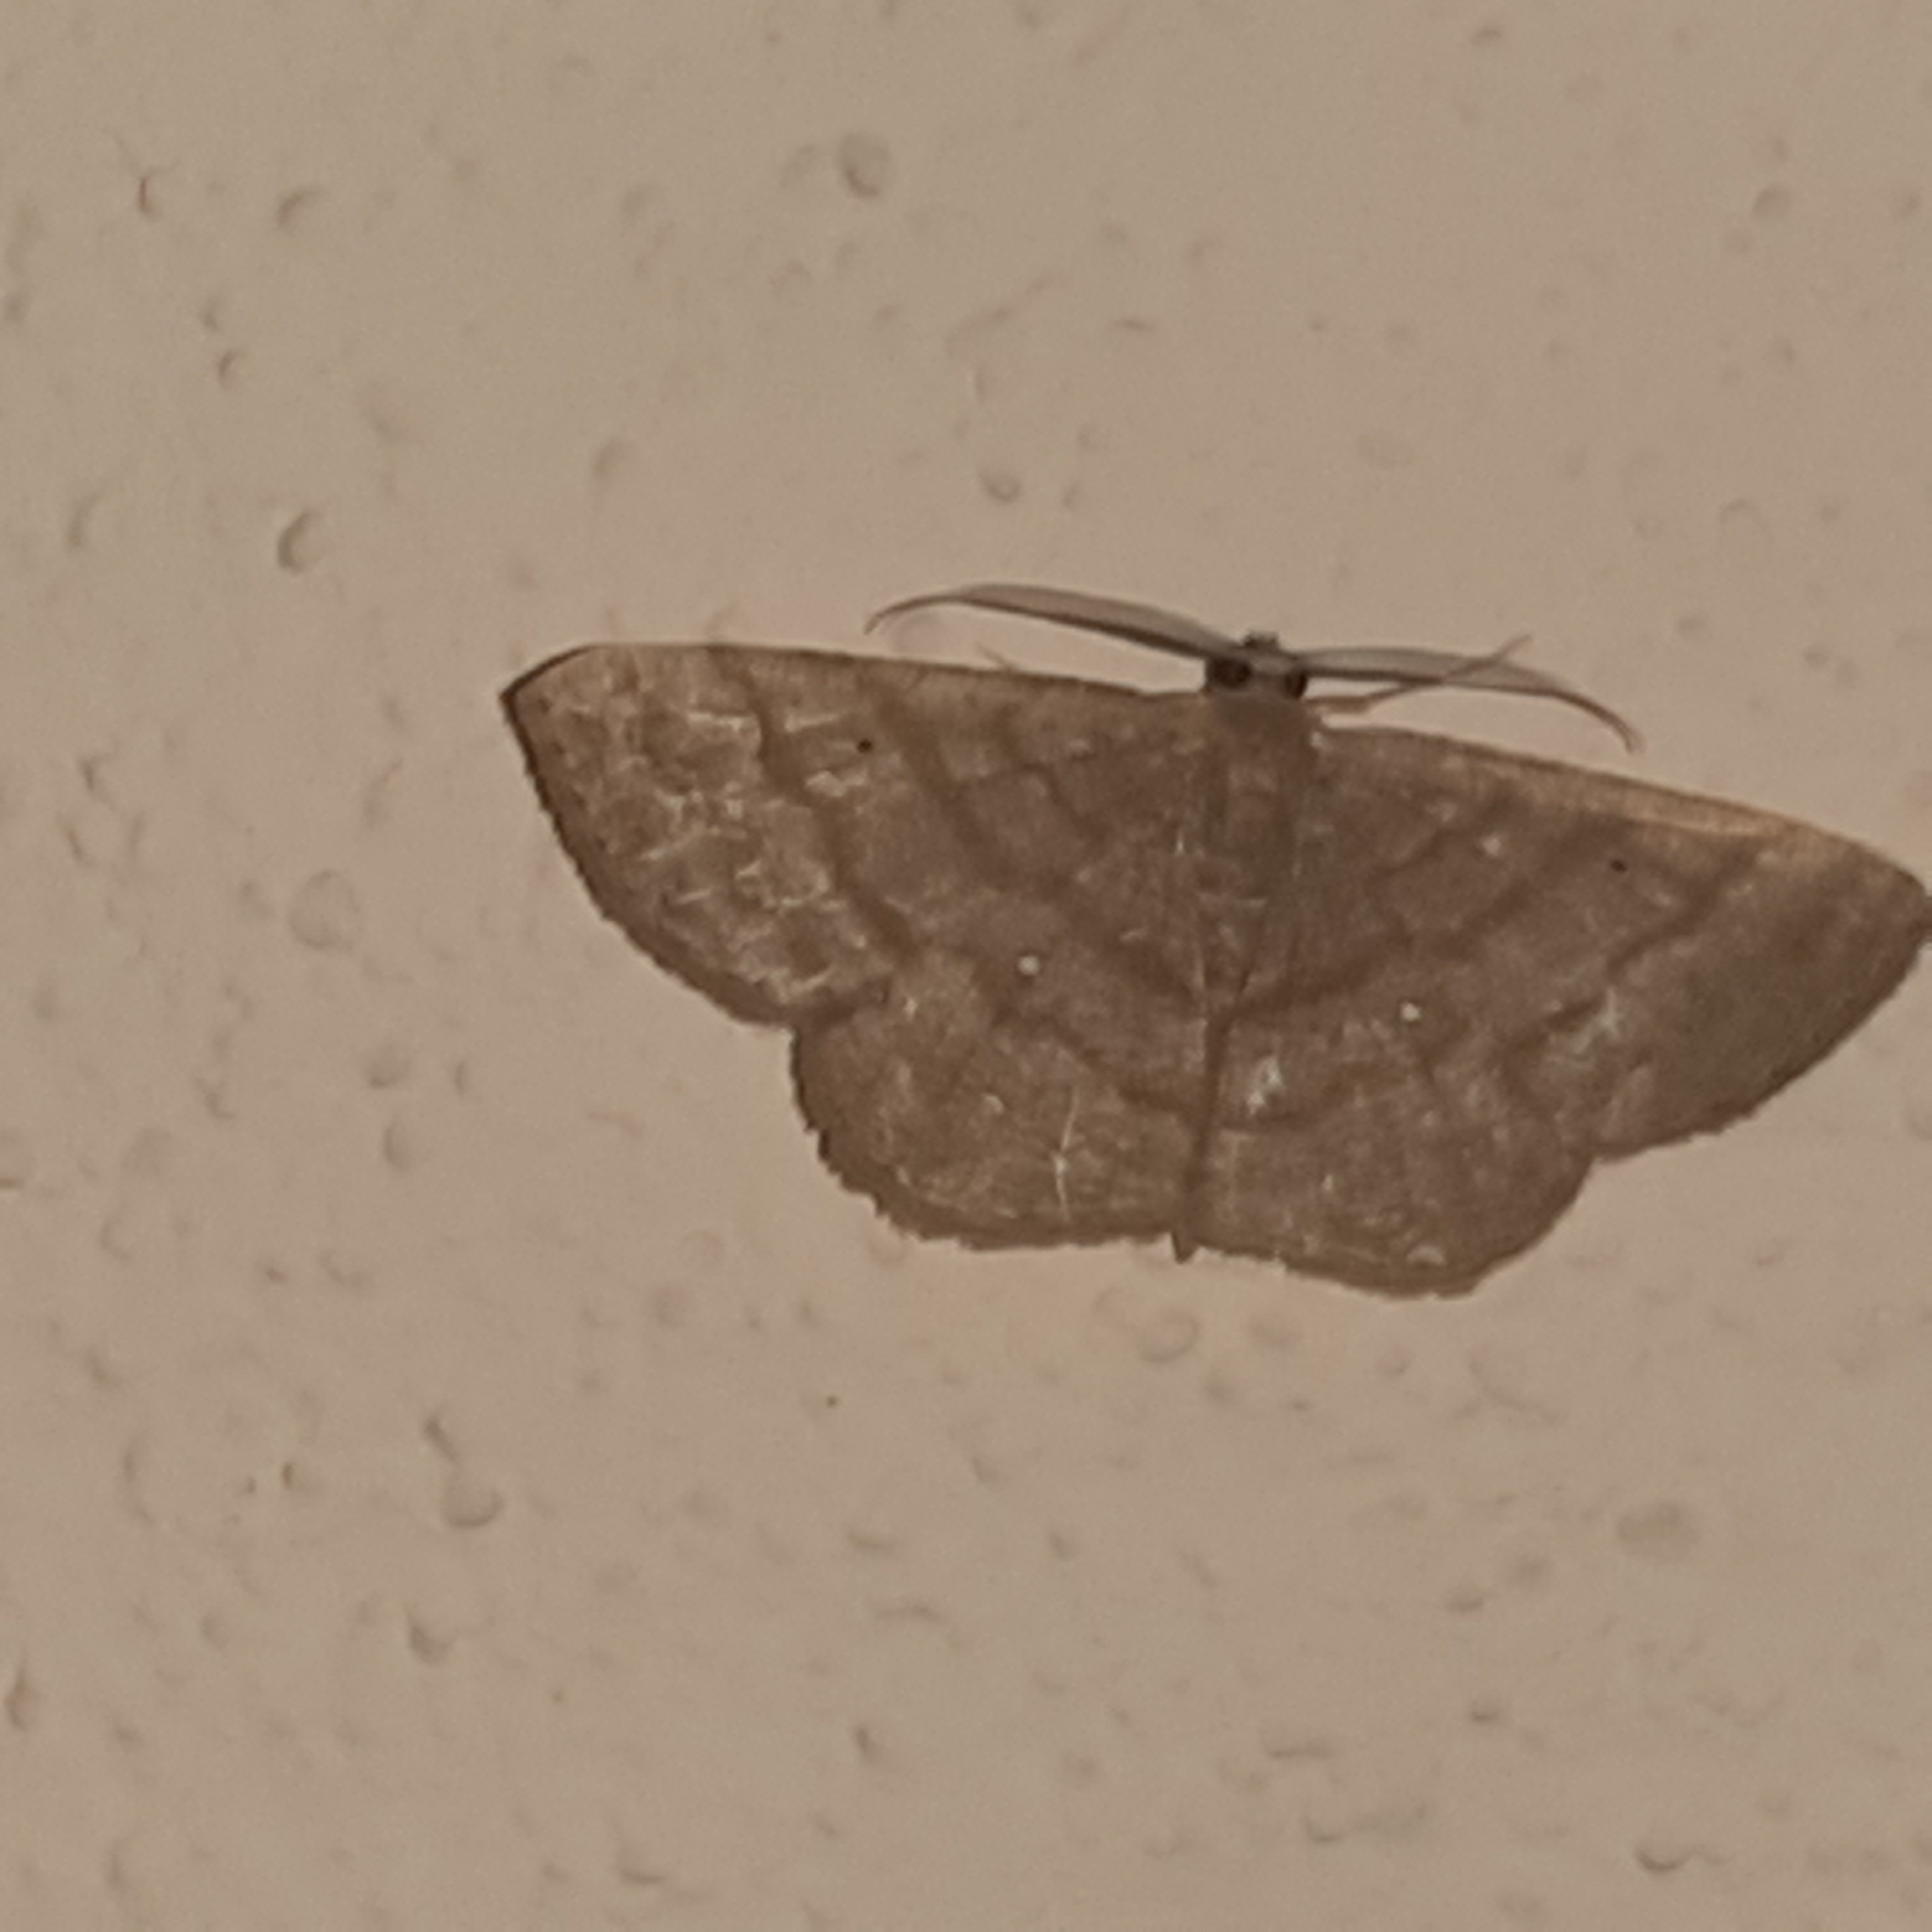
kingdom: Animalia
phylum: Arthropoda
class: Insecta
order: Lepidoptera
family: Geometridae
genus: Parilexia
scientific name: Parilexia cermala
